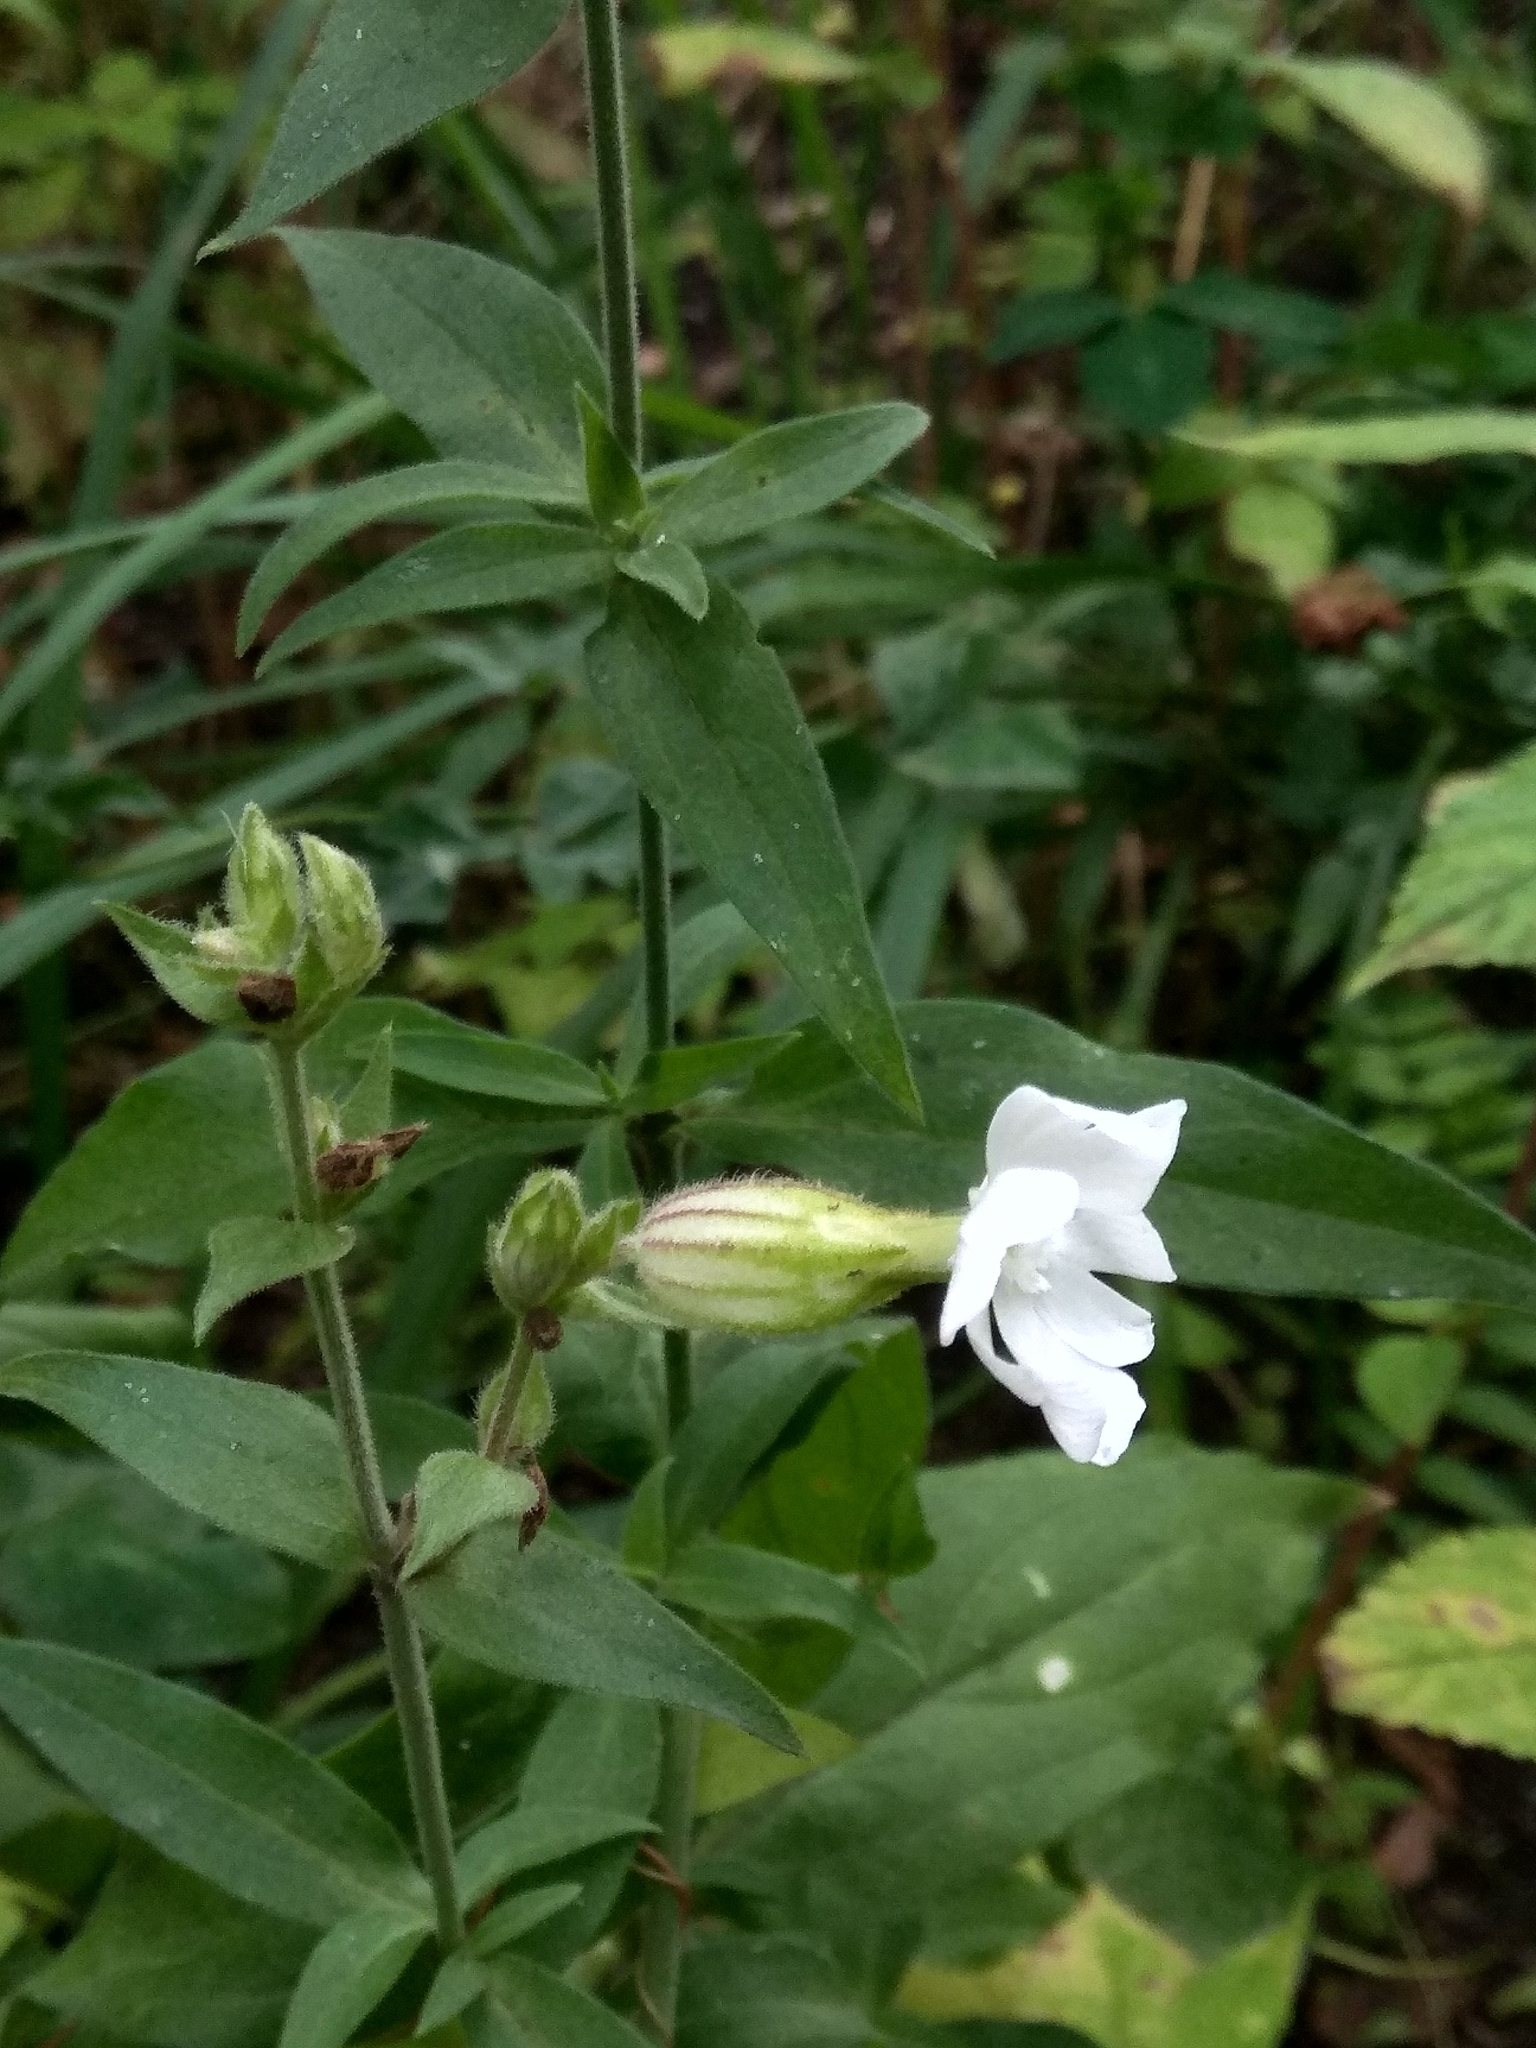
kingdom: Plantae
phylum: Tracheophyta
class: Magnoliopsida
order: Caryophyllales
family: Caryophyllaceae
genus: Silene
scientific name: Silene latifolia
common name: White campion
